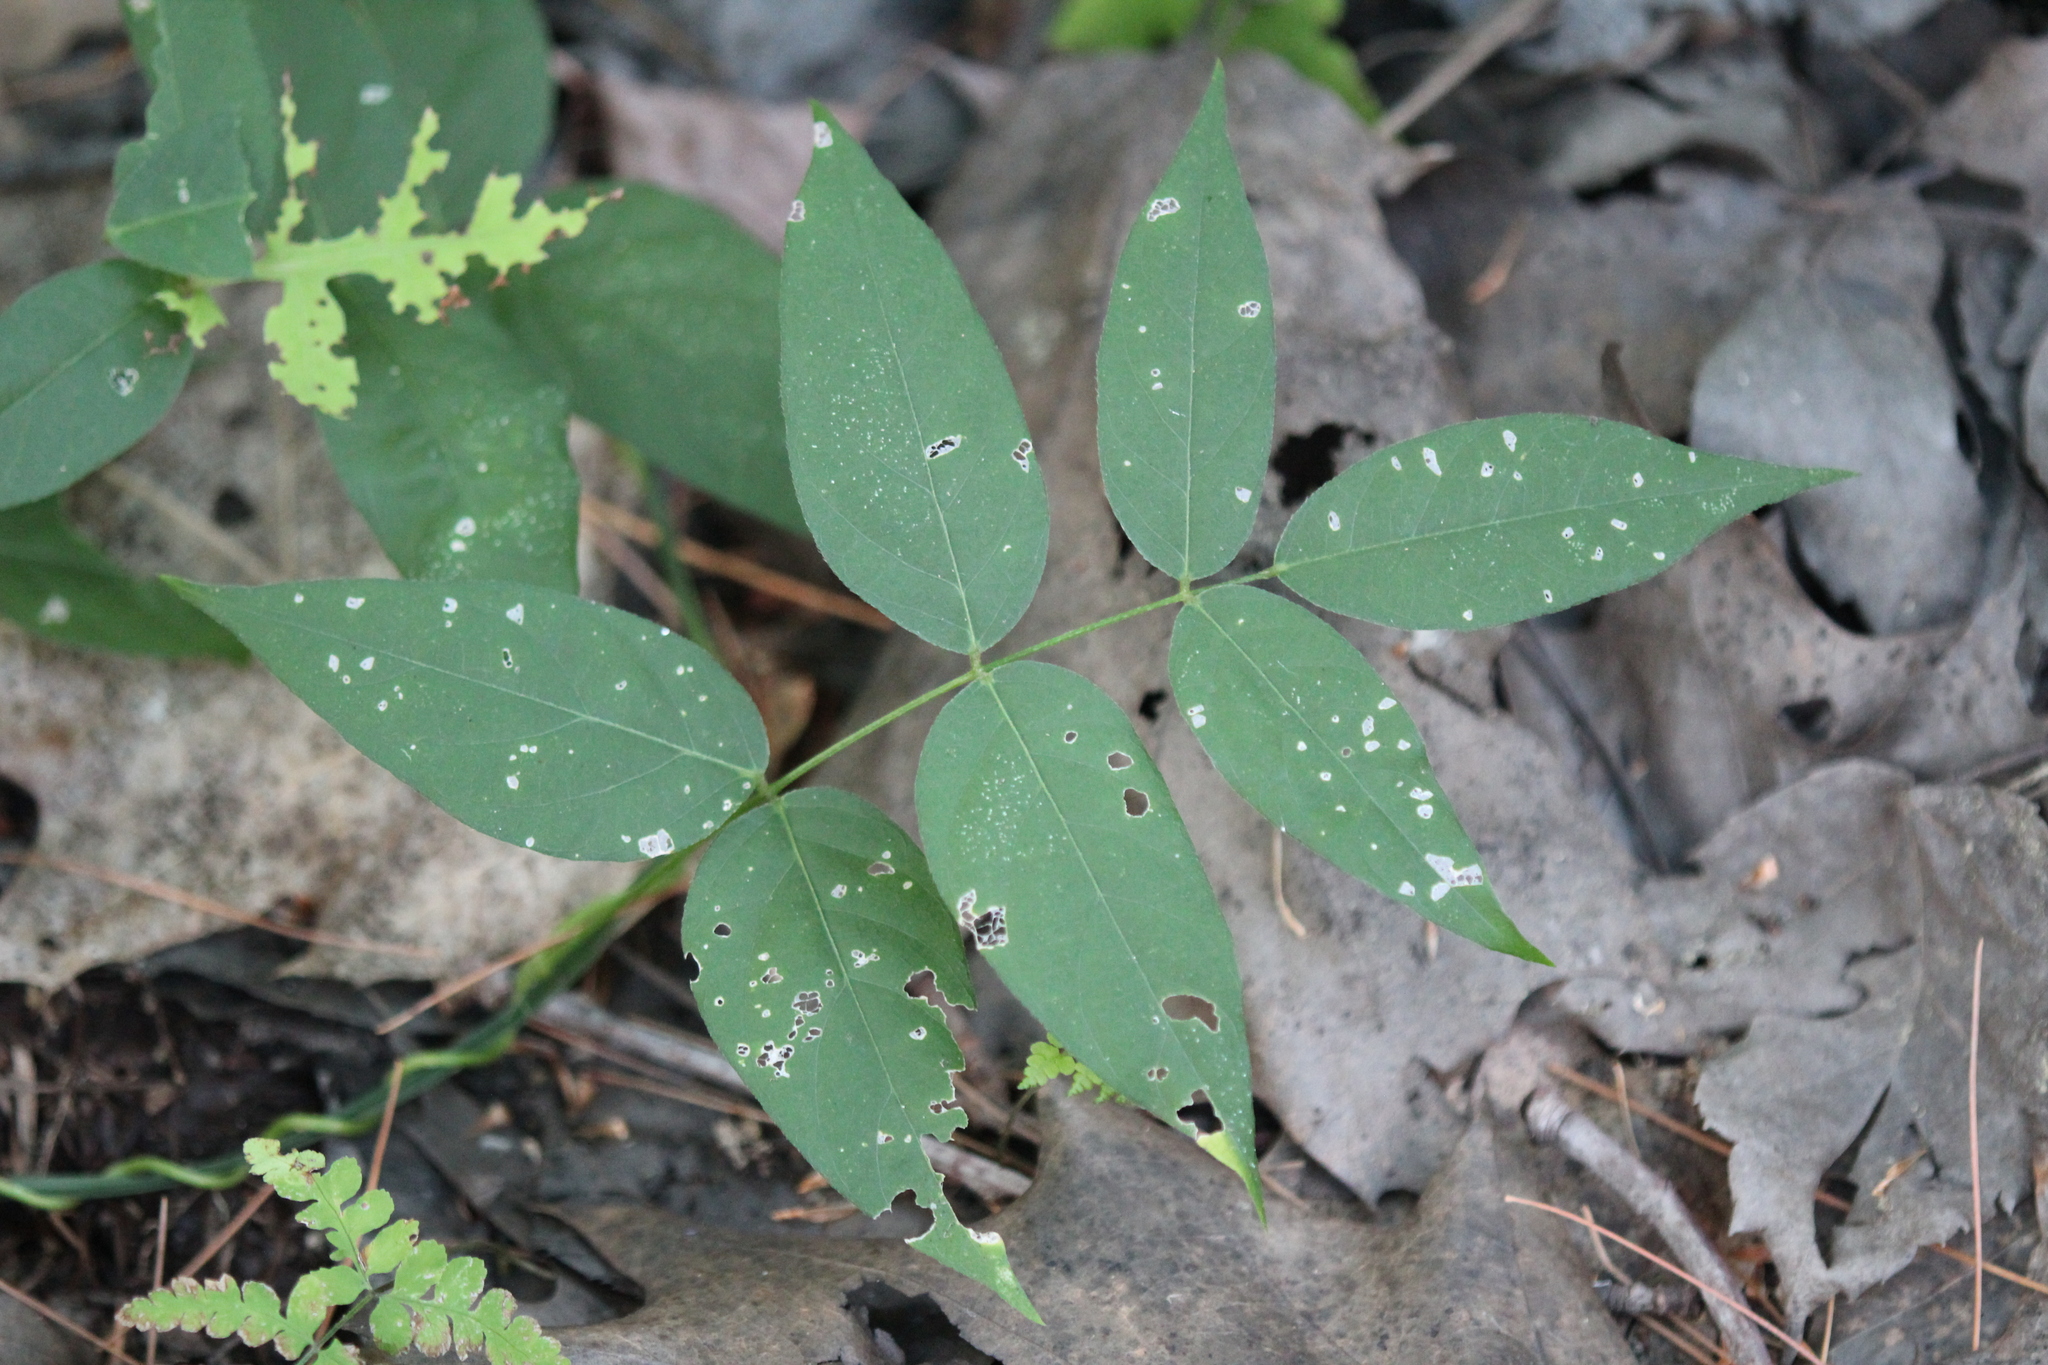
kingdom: Plantae
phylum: Tracheophyta
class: Magnoliopsida
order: Fabales
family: Fabaceae
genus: Apios
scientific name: Apios americana
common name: American potato-bean
